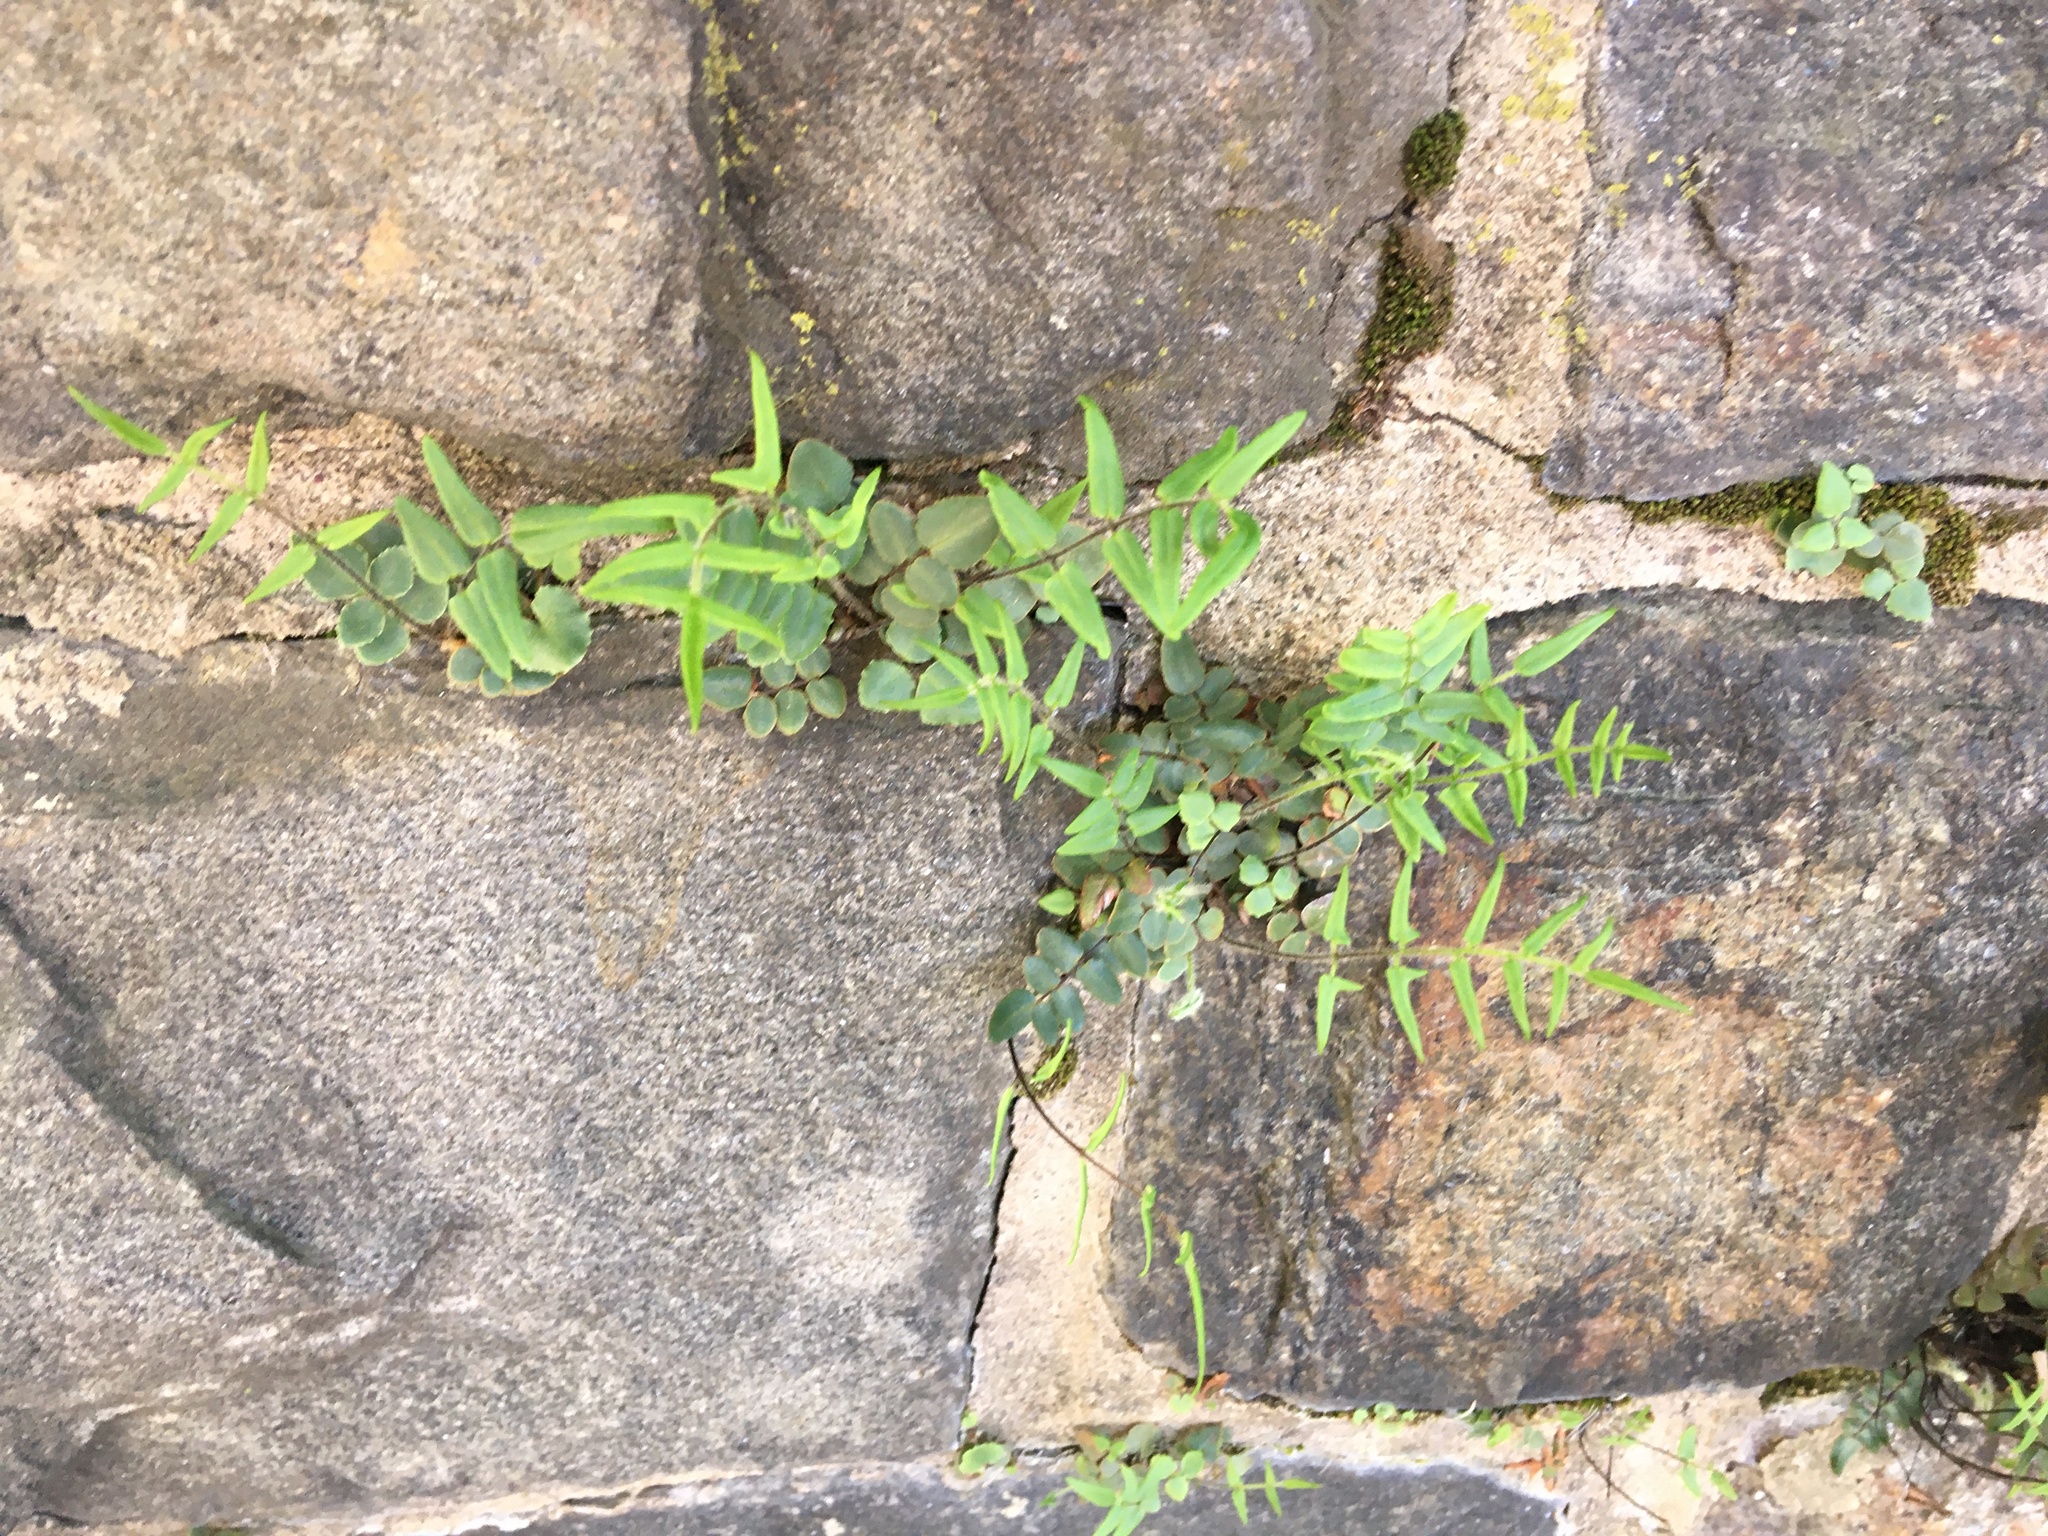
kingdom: Plantae
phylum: Tracheophyta
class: Polypodiopsida
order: Polypodiales
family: Pteridaceae
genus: Pellaea
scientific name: Pellaea atropurpurea
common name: Hairy cliffbrake
